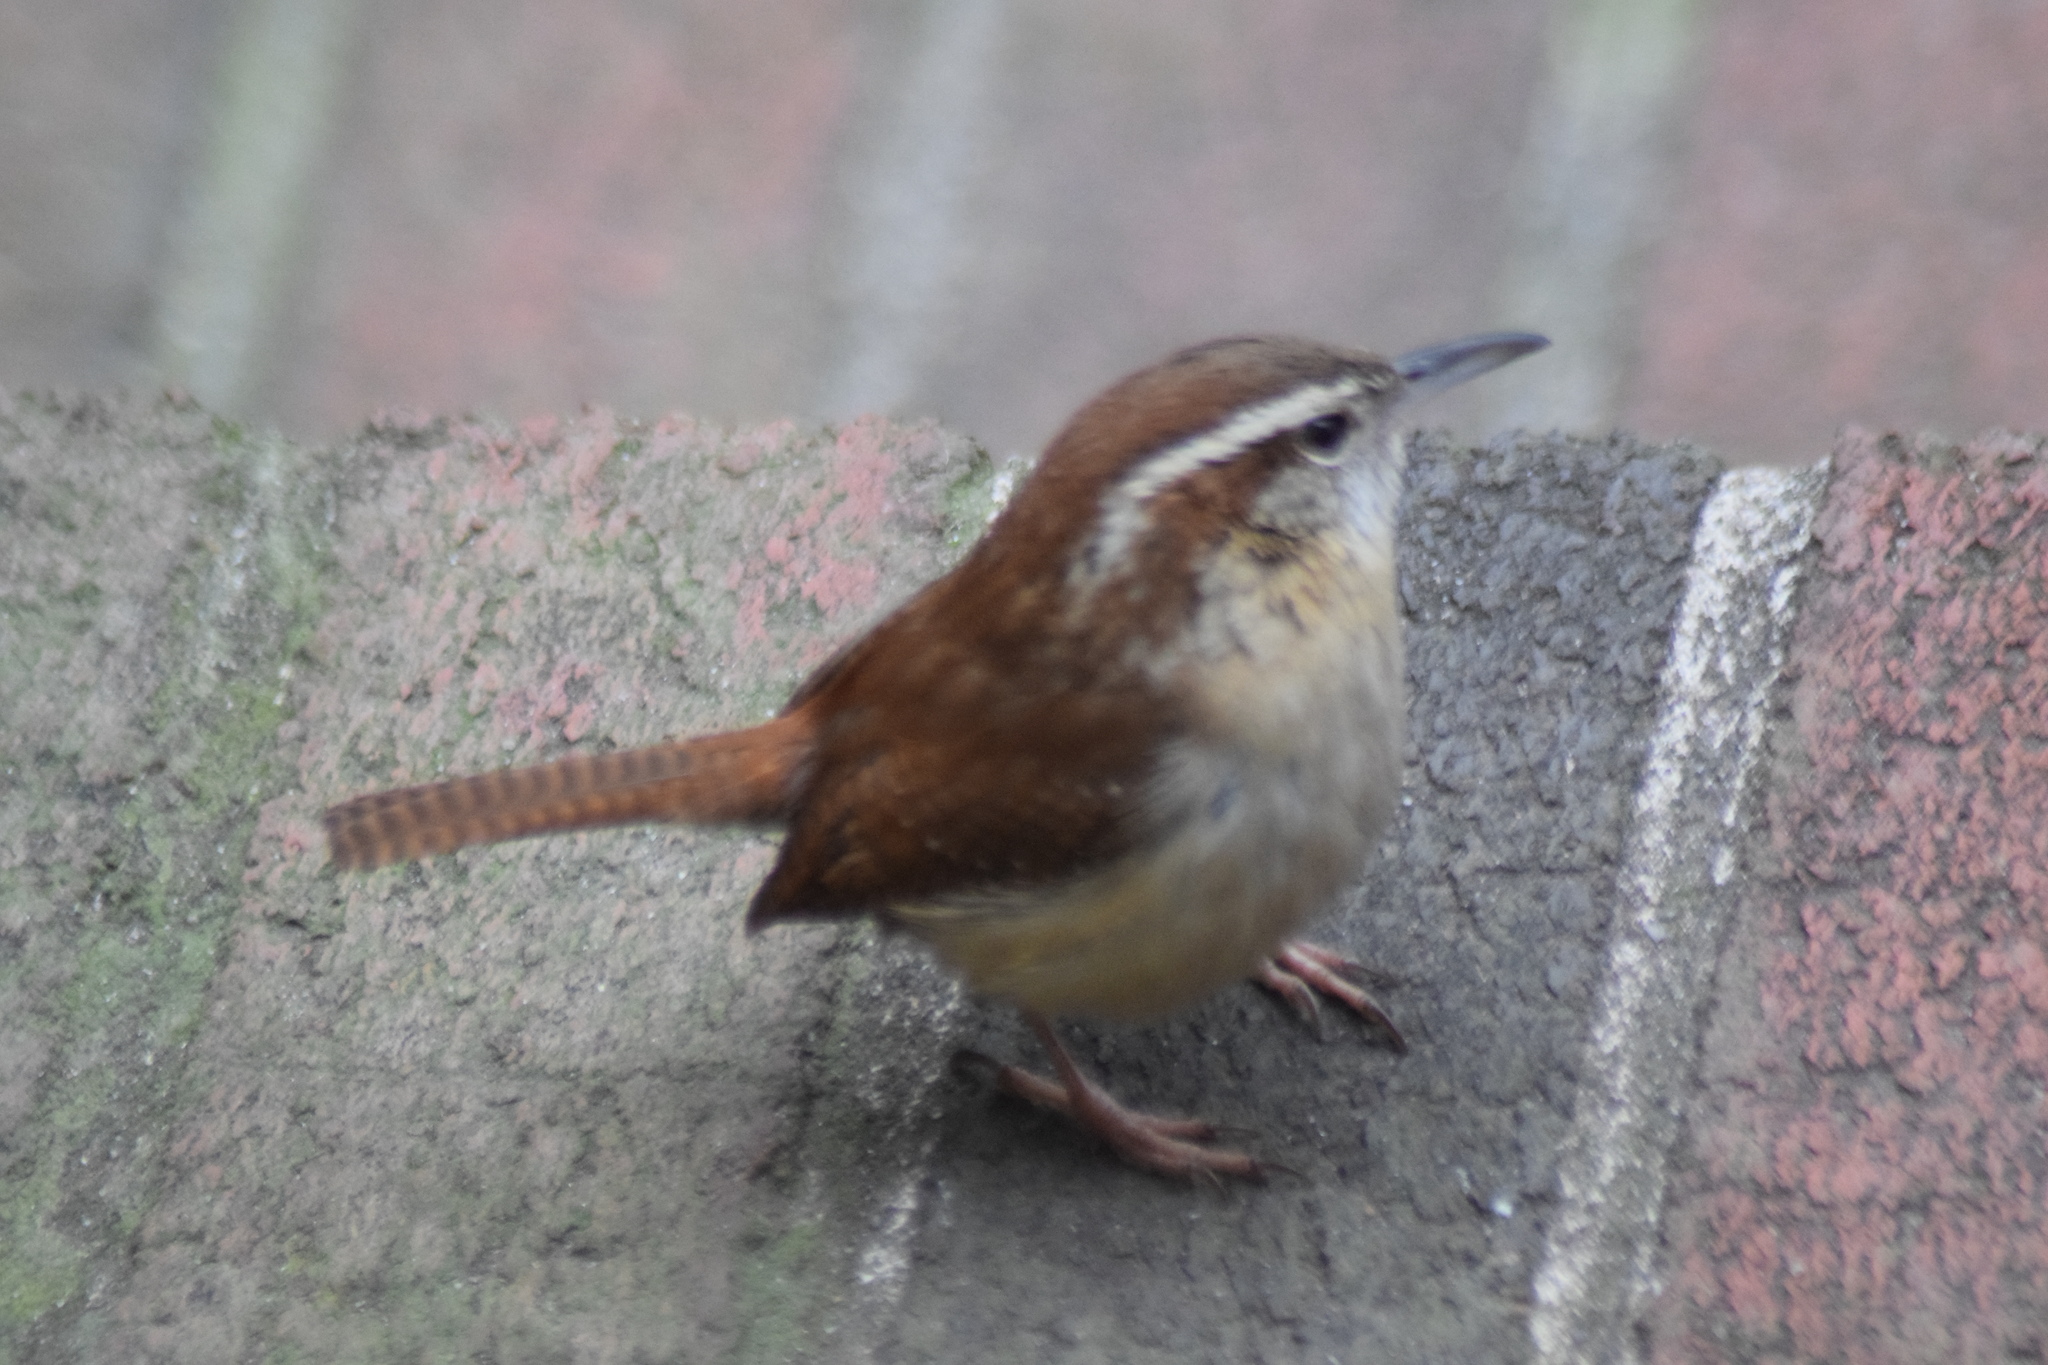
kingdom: Animalia
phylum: Chordata
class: Aves
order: Passeriformes
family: Troglodytidae
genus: Thryothorus
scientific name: Thryothorus ludovicianus
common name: Carolina wren
